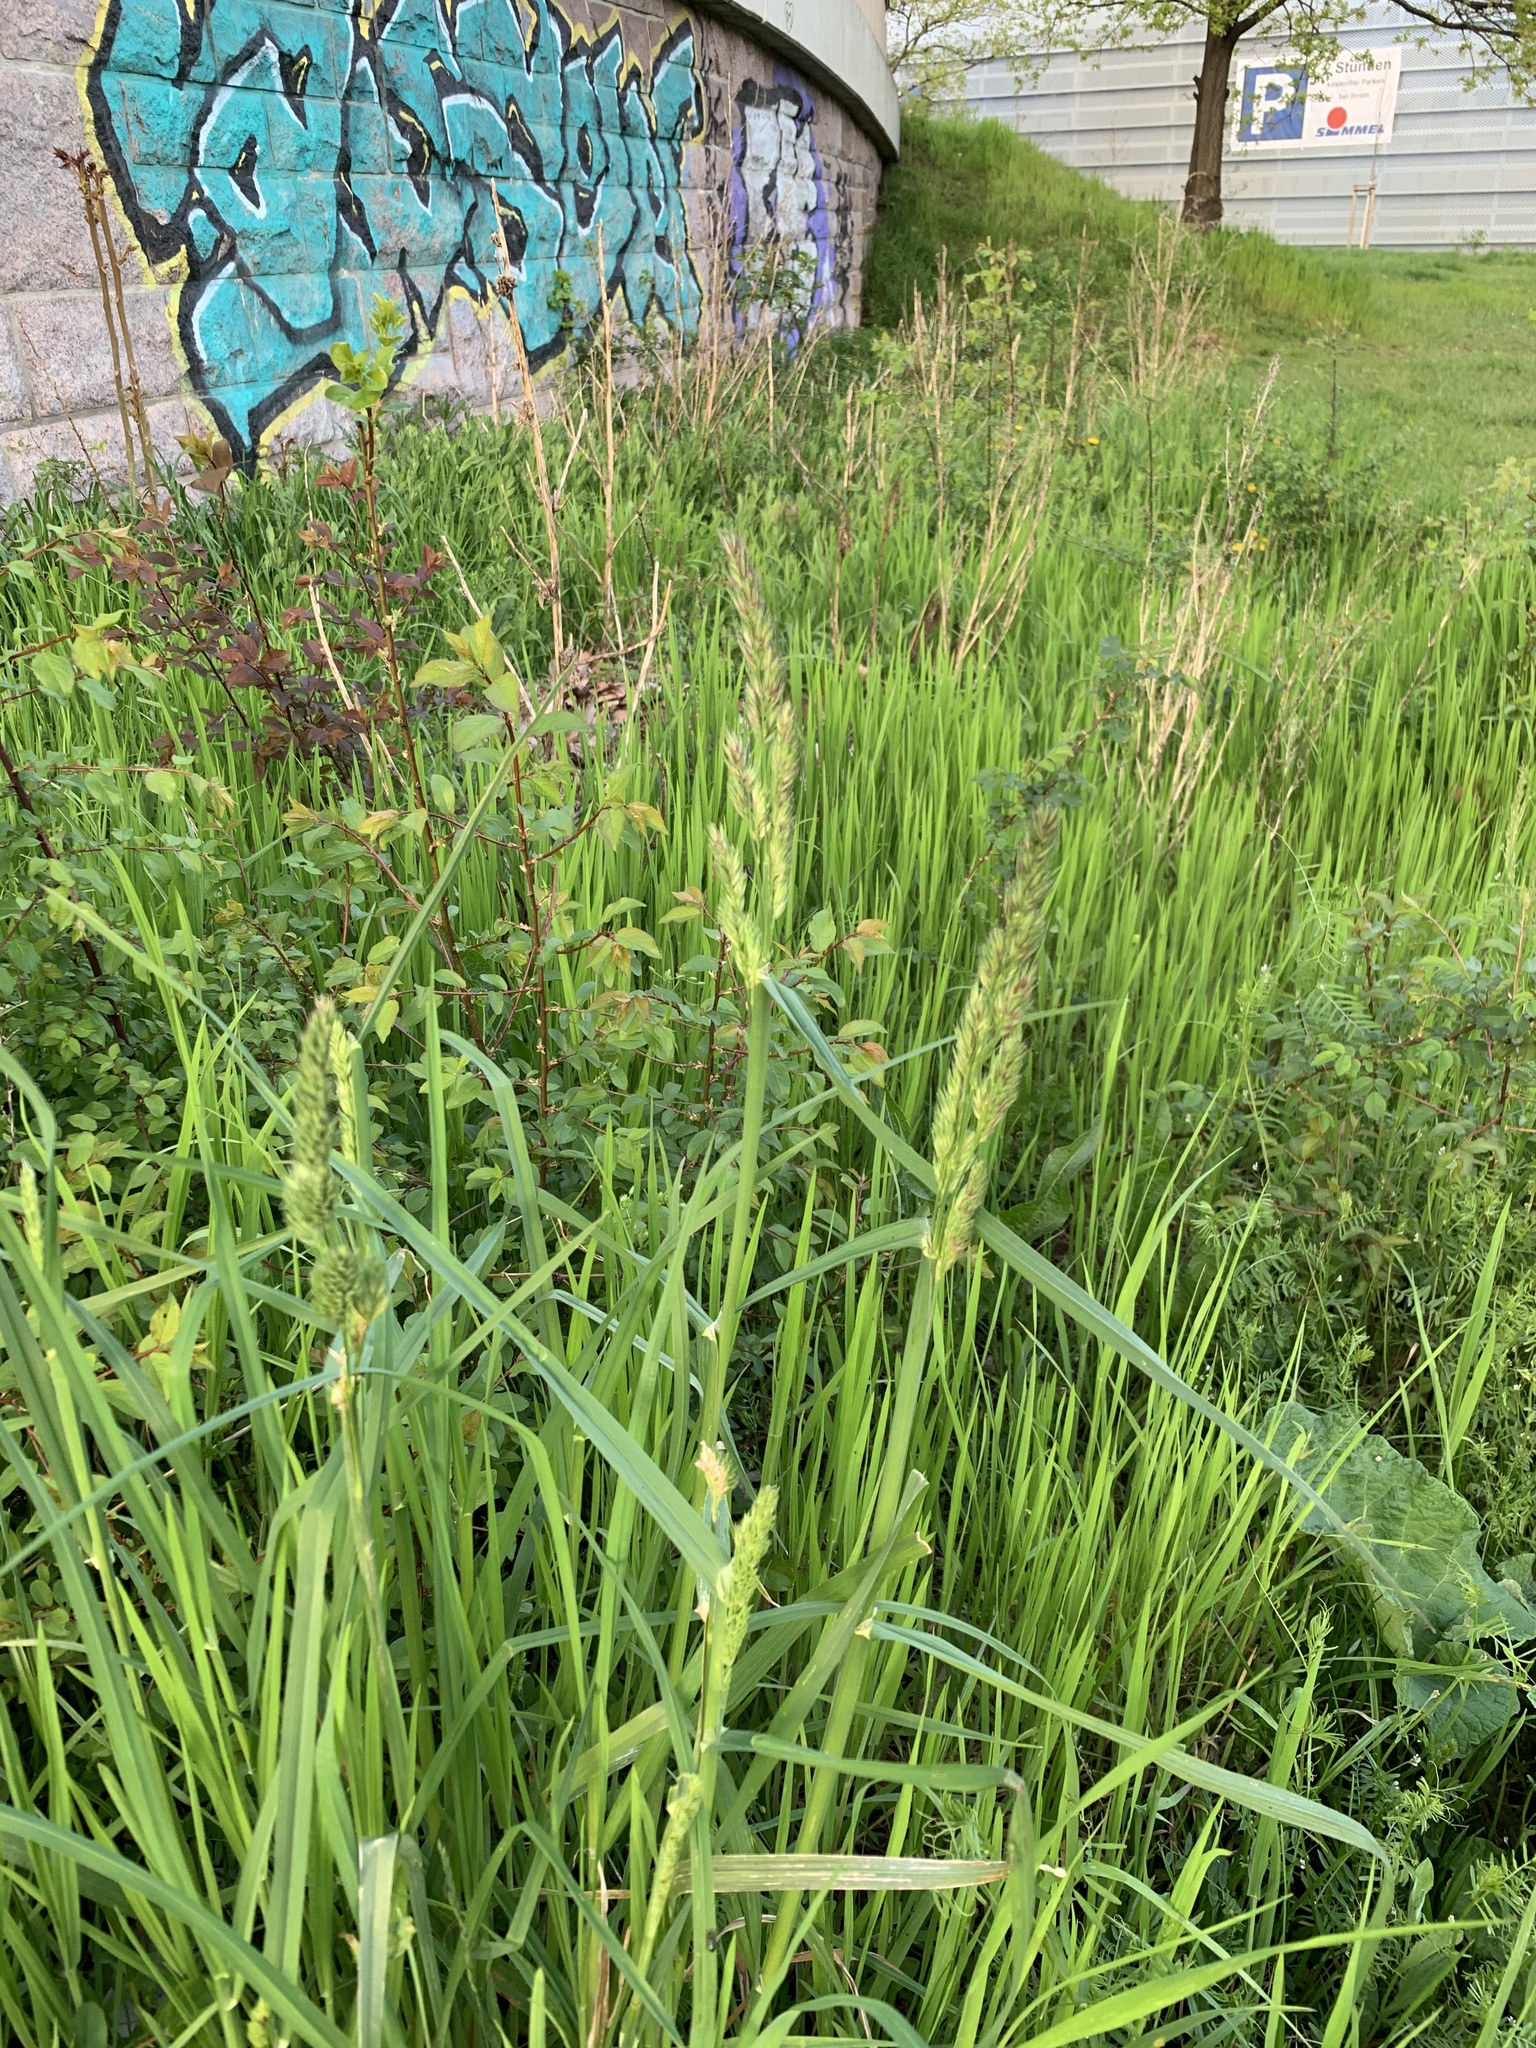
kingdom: Plantae
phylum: Tracheophyta
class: Liliopsida
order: Poales
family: Poaceae
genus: Dactylis
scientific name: Dactylis glomerata
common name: Orchardgrass
